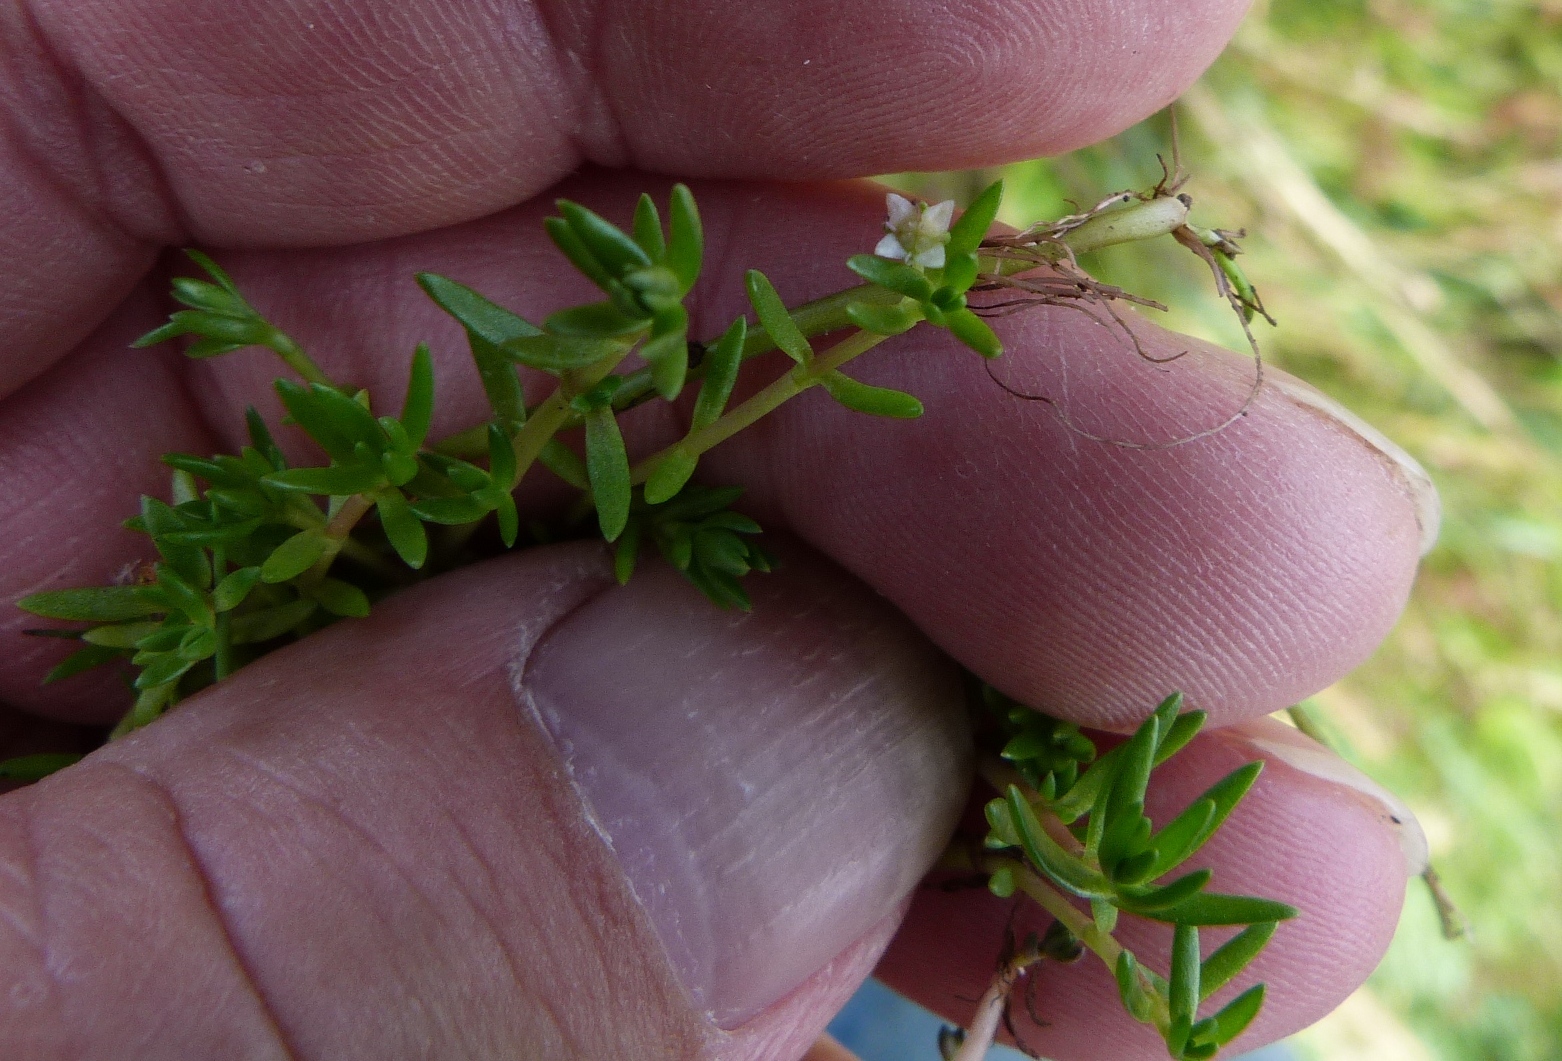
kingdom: Plantae
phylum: Tracheophyta
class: Magnoliopsida
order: Saxifragales
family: Crassulaceae
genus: Crassula
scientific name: Crassula helmsii
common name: New zealand pigmyweed
